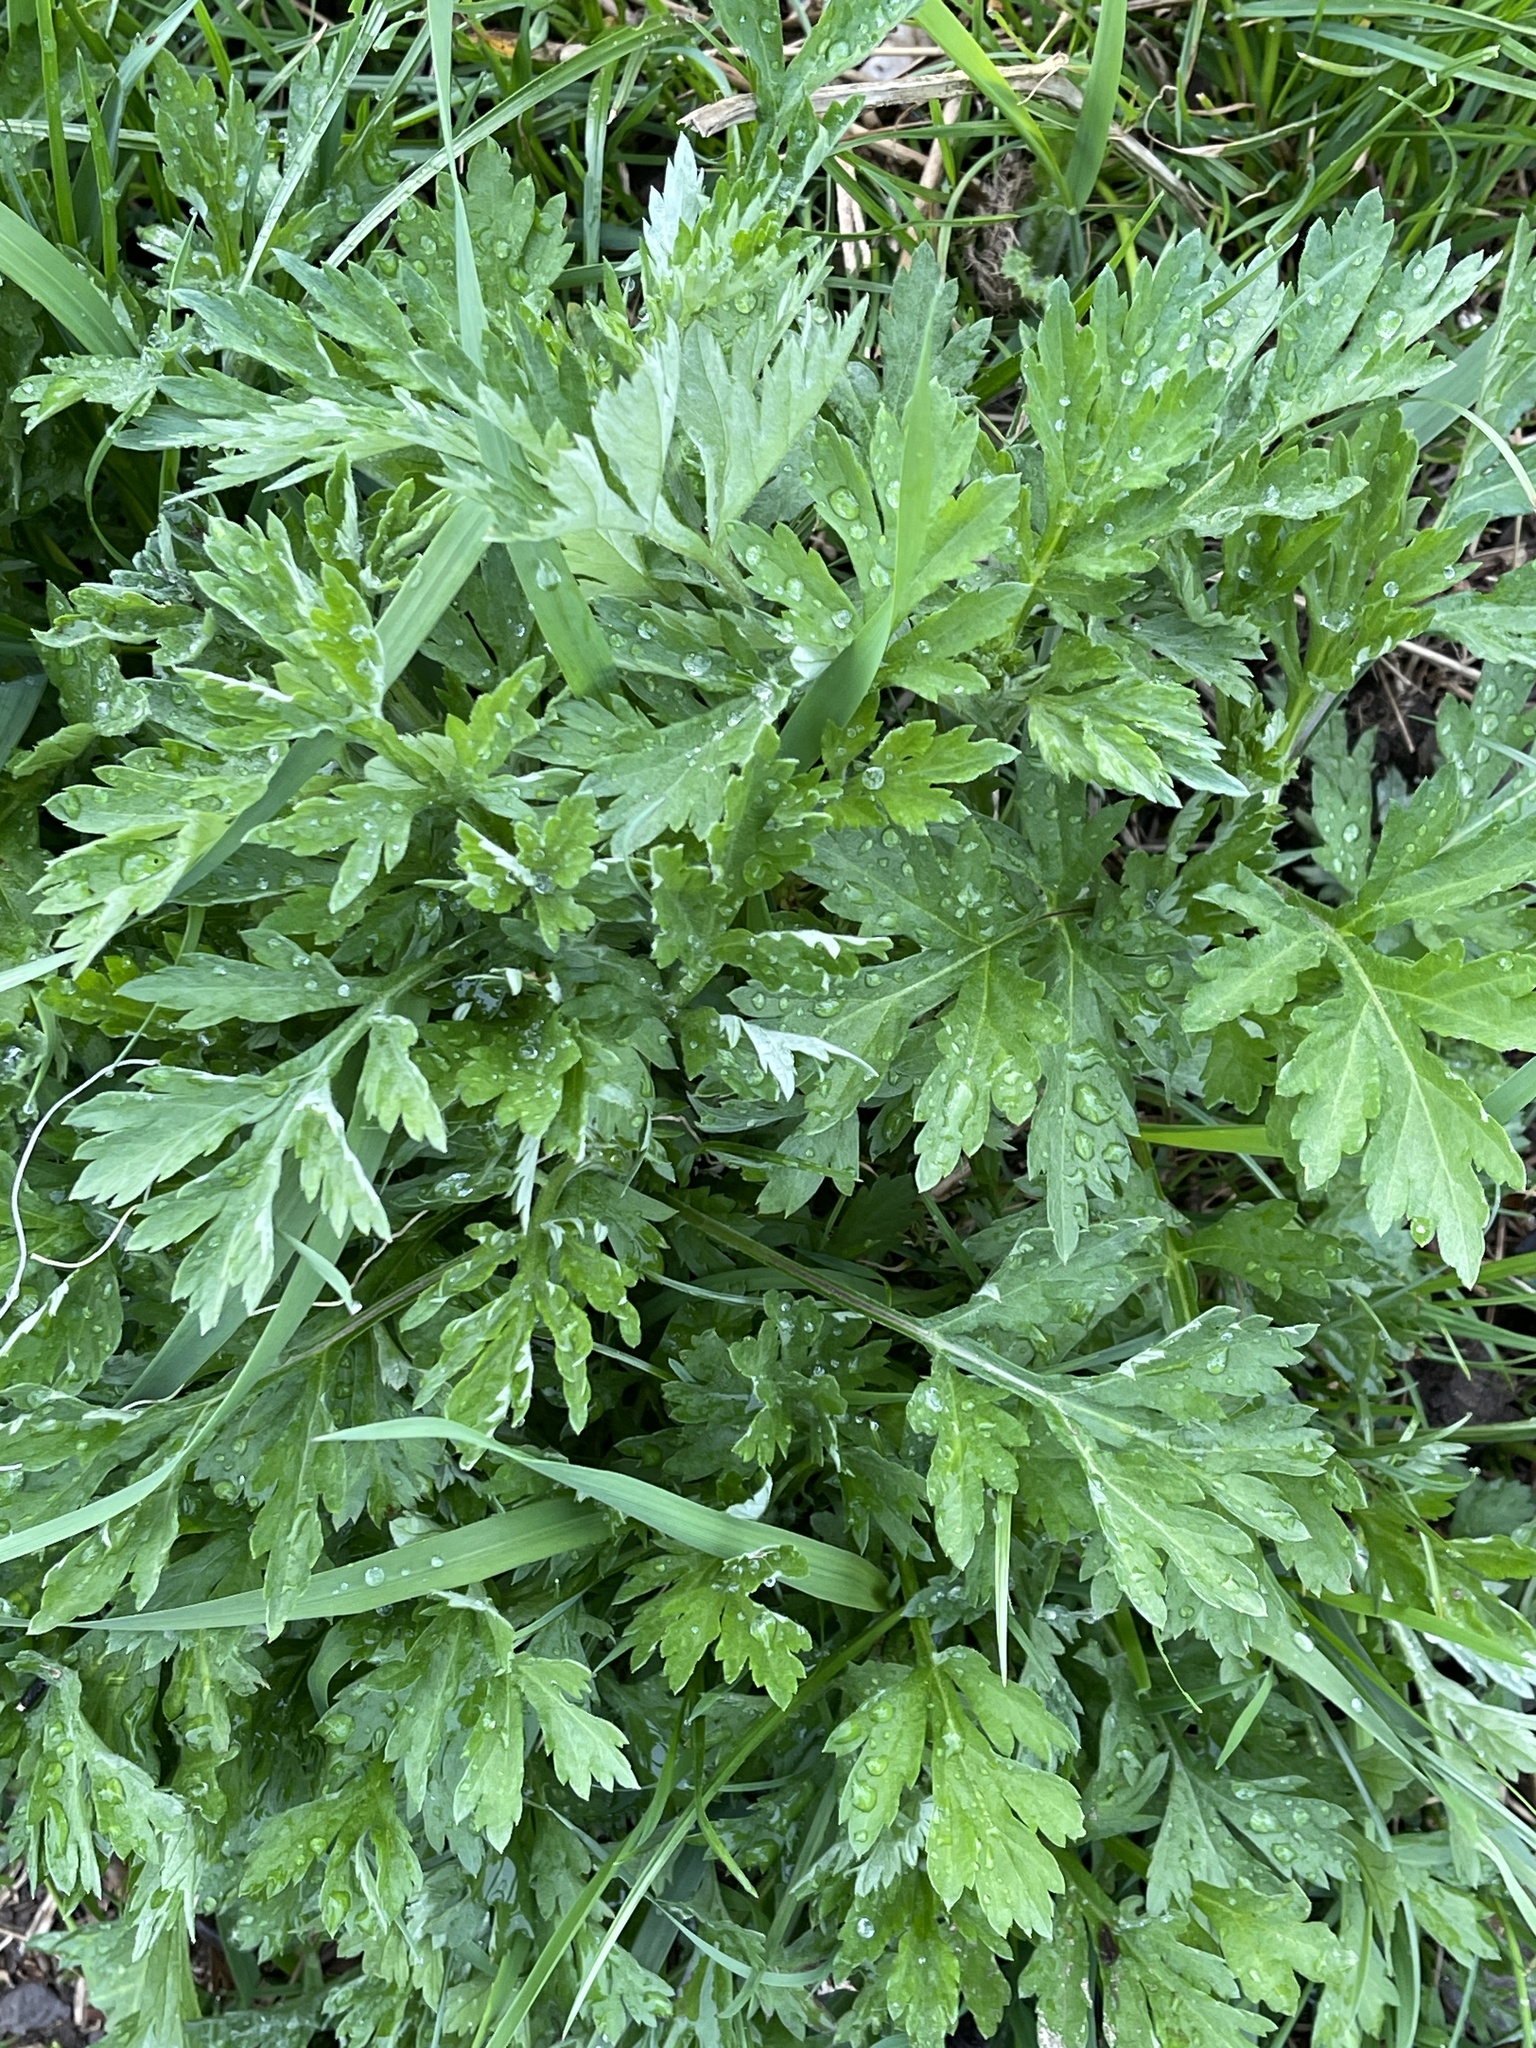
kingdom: Plantae
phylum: Tracheophyta
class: Magnoliopsida
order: Asterales
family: Asteraceae
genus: Artemisia
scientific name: Artemisia vulgaris
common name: Mugwort
